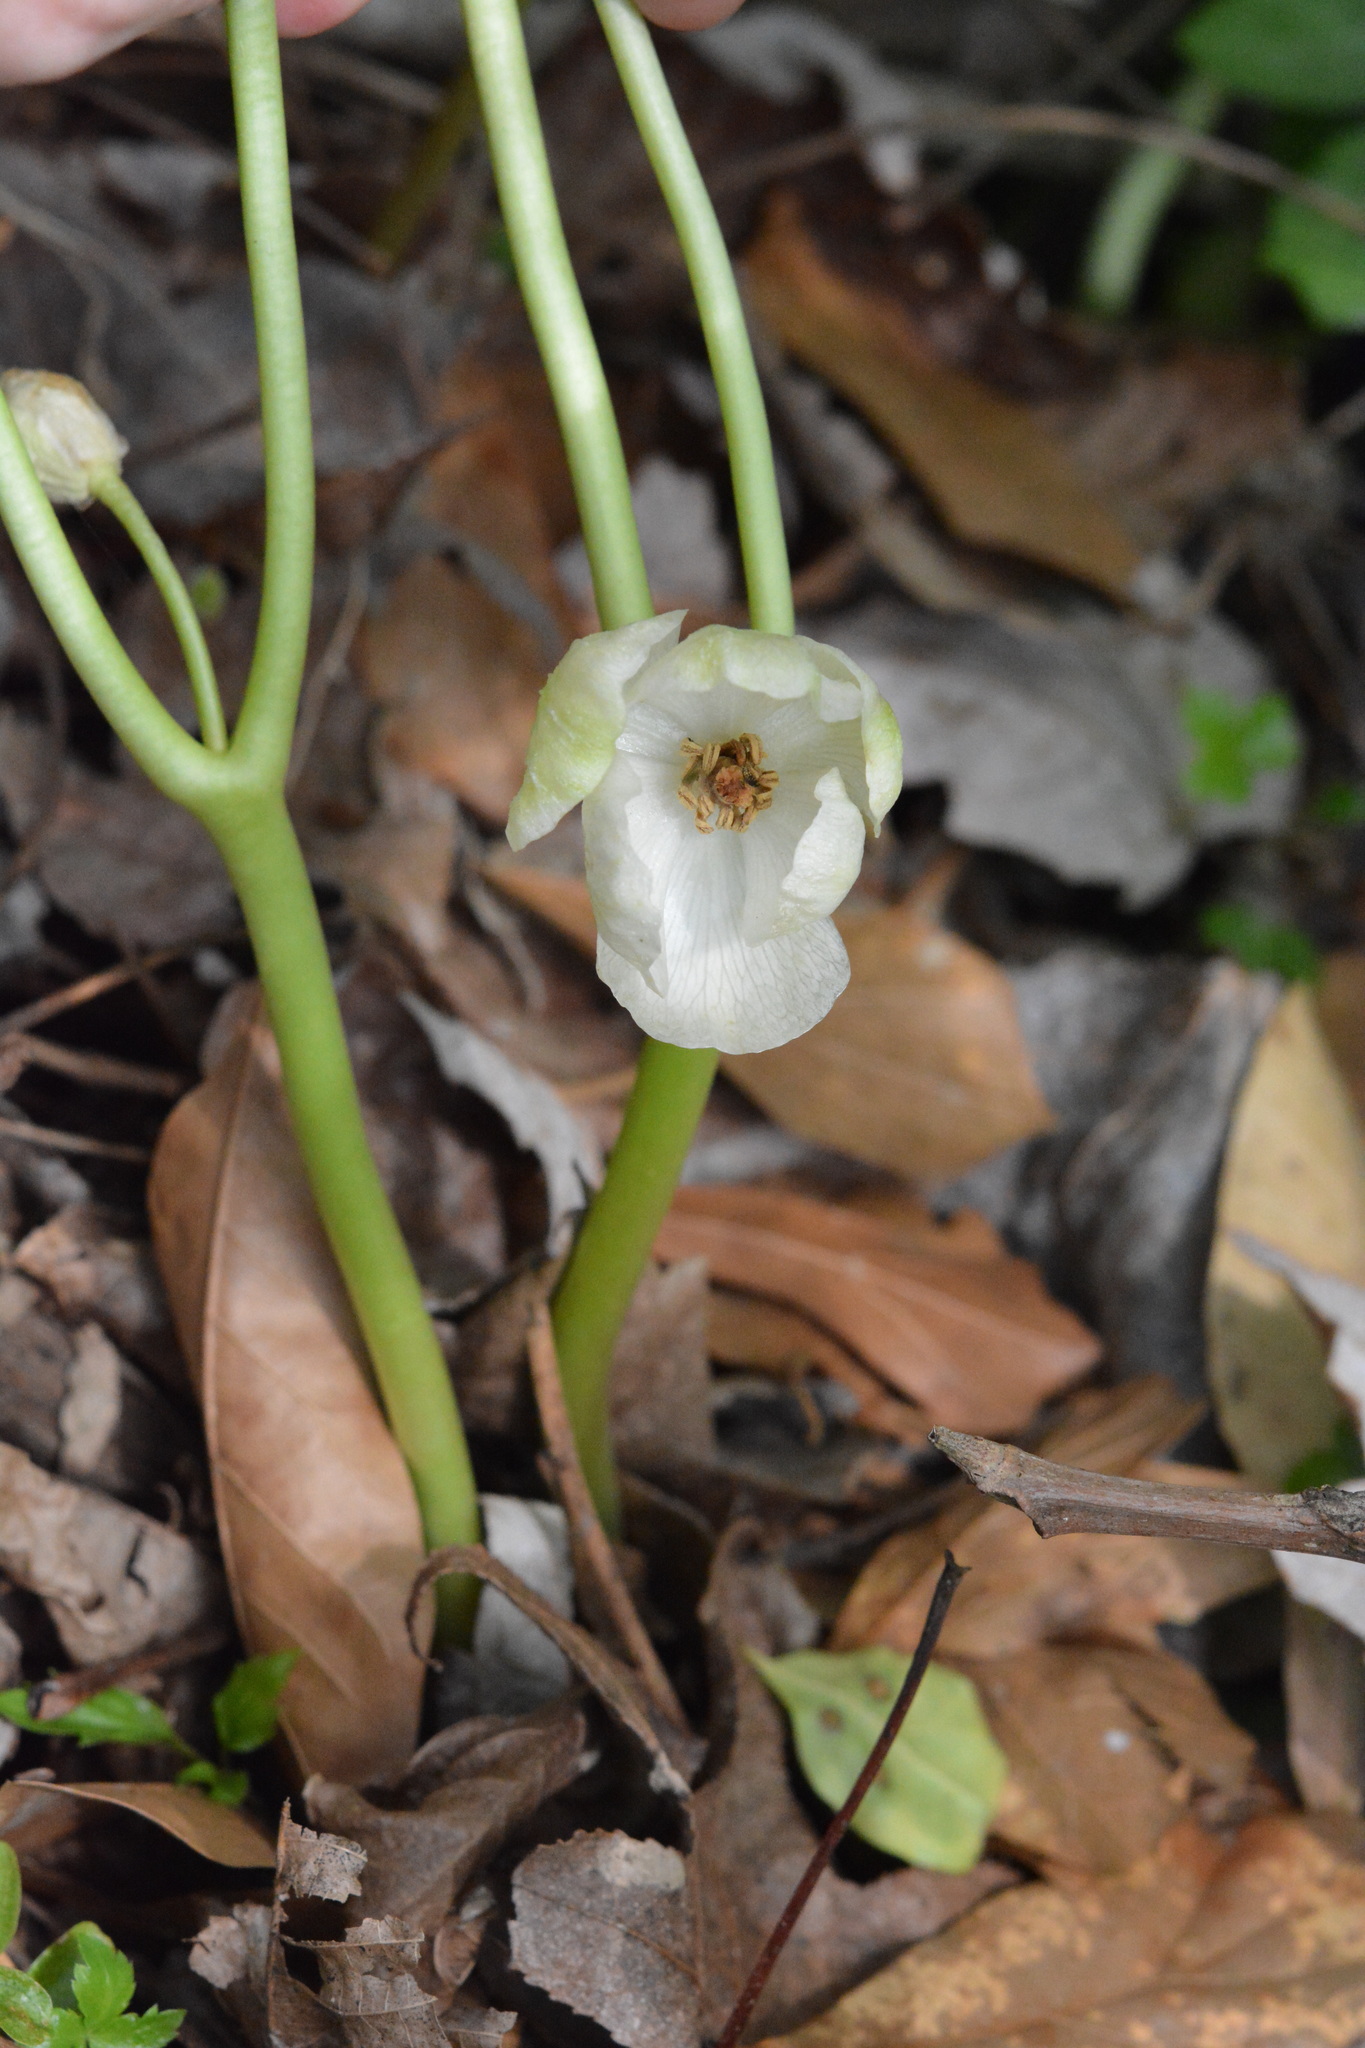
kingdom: Plantae
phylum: Tracheophyta
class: Magnoliopsida
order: Ranunculales
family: Berberidaceae
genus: Podophyllum
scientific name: Podophyllum peltatum
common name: Wild mandrake
